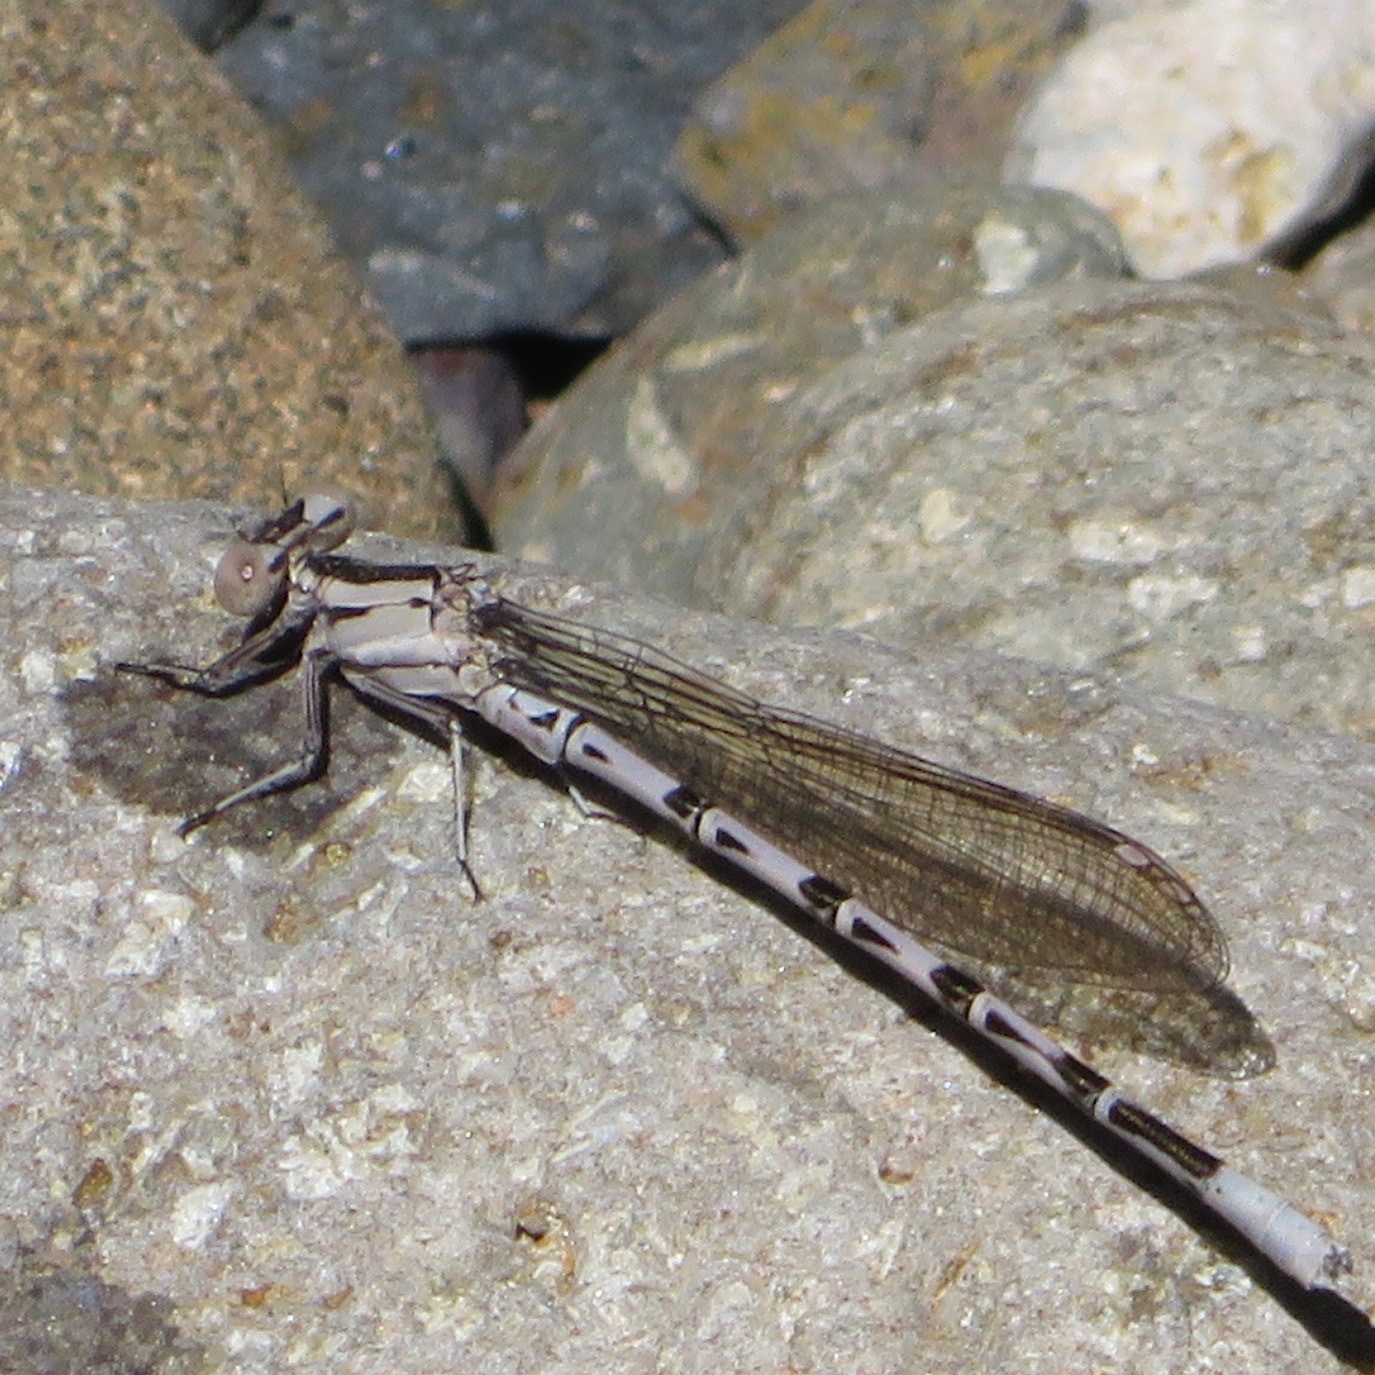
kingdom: Animalia
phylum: Arthropoda
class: Insecta
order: Odonata
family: Coenagrionidae
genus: Argia
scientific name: Argia vivida
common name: Vivid dancer
